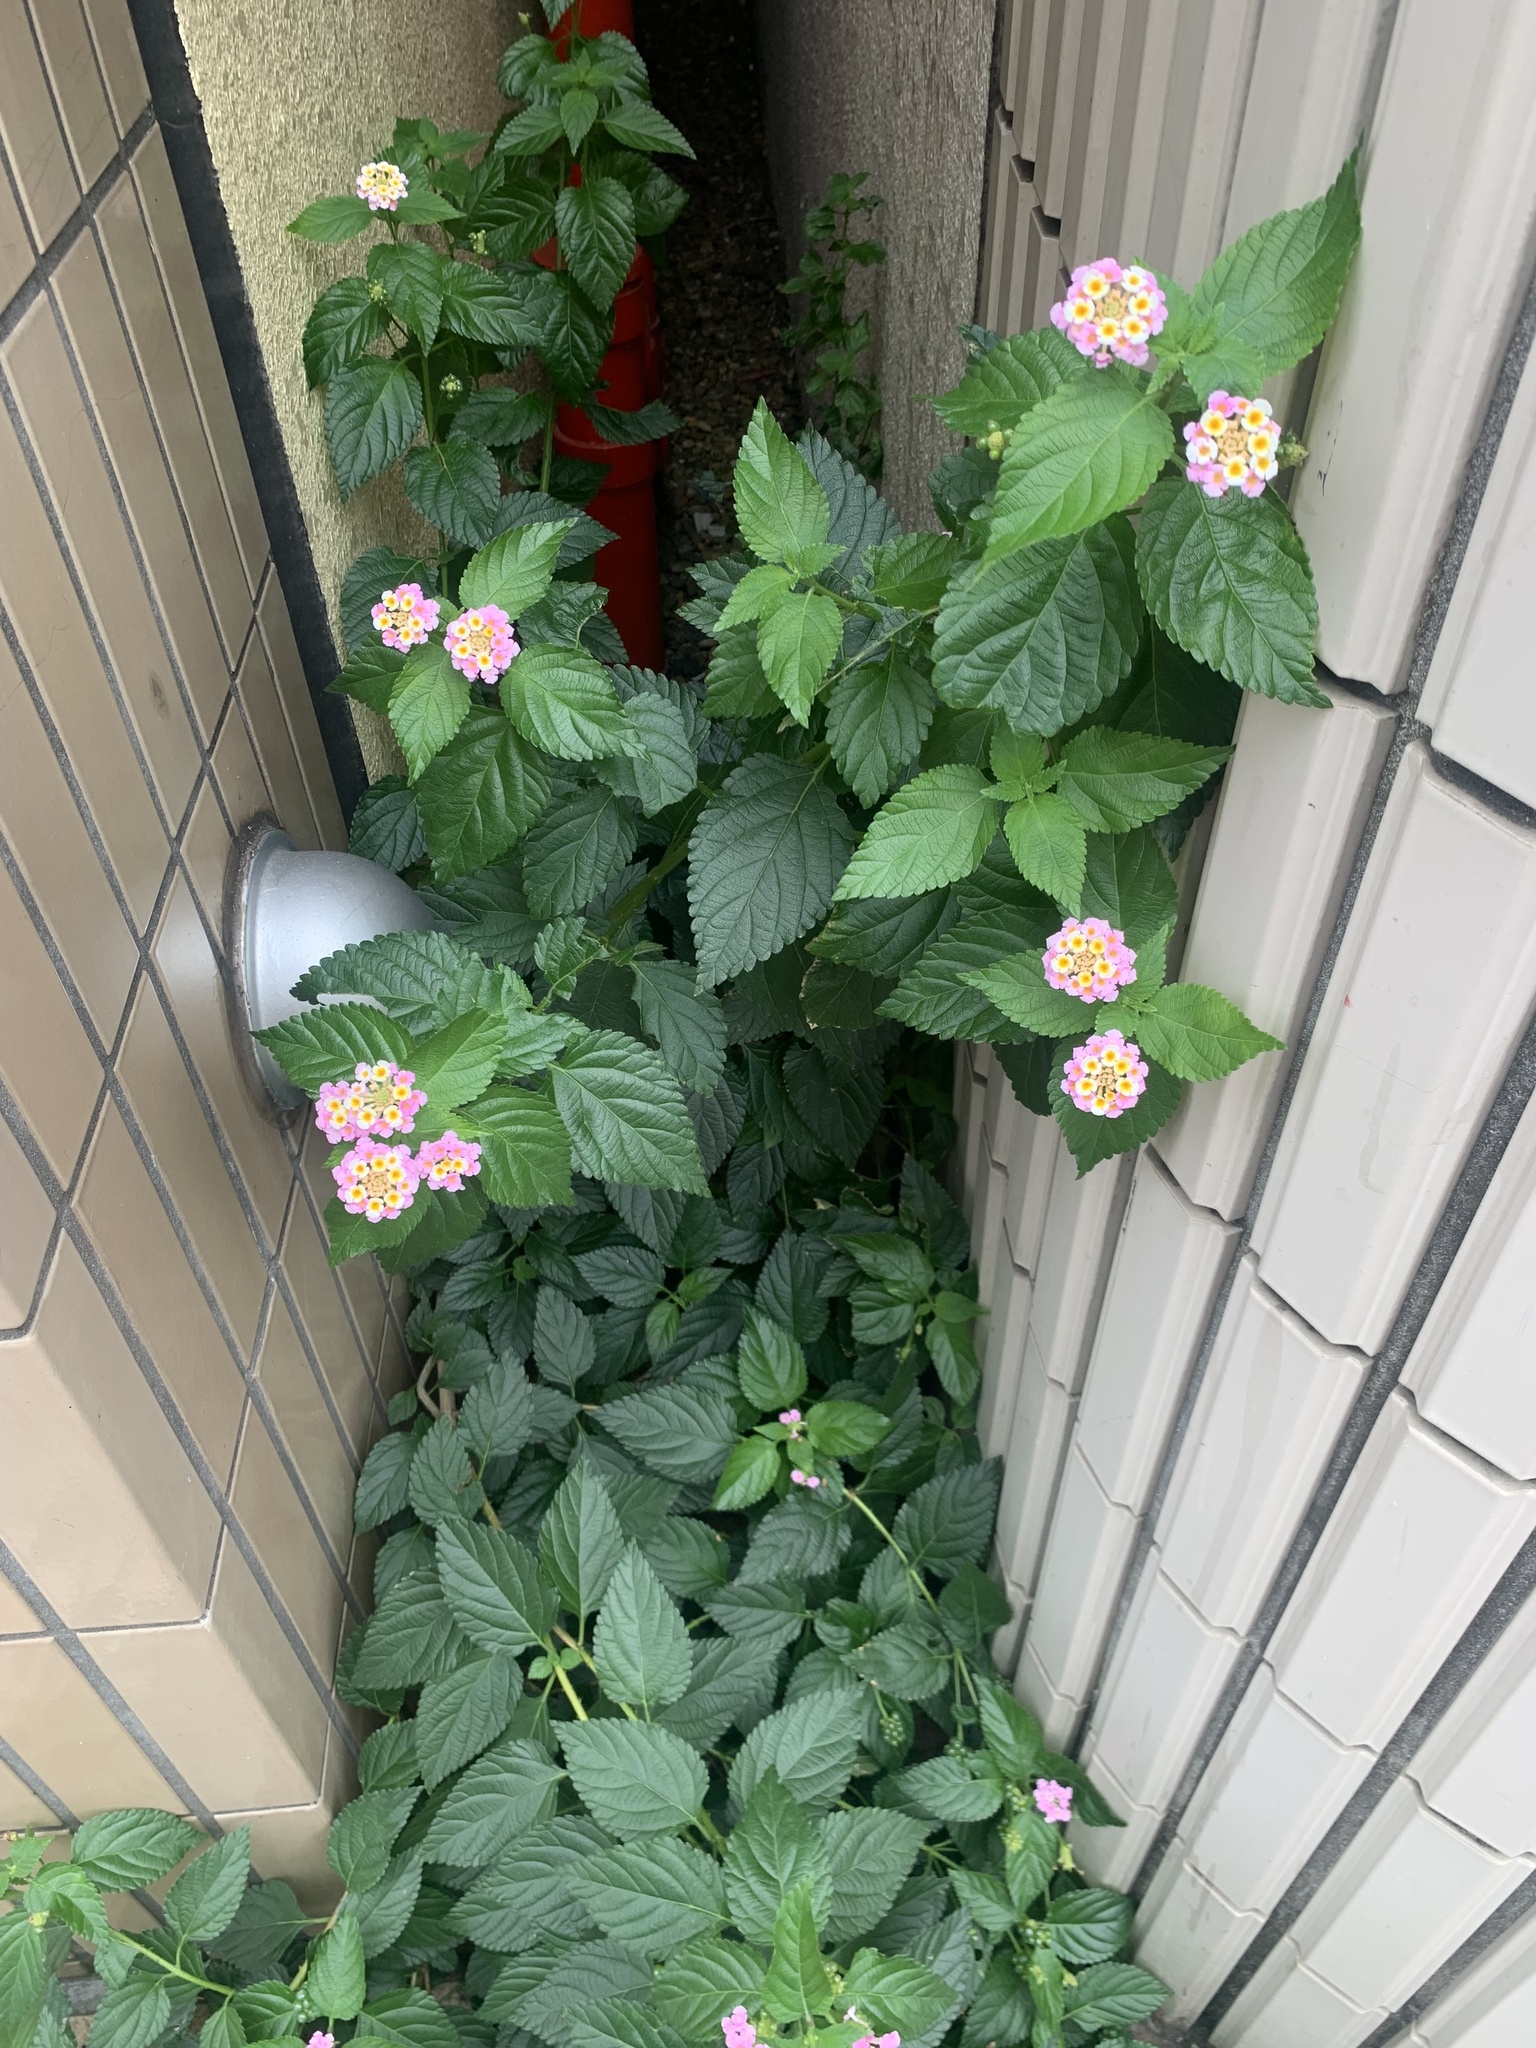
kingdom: Plantae
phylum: Tracheophyta
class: Magnoliopsida
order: Lamiales
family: Verbenaceae
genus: Lantana
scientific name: Lantana camara
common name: Lantana
